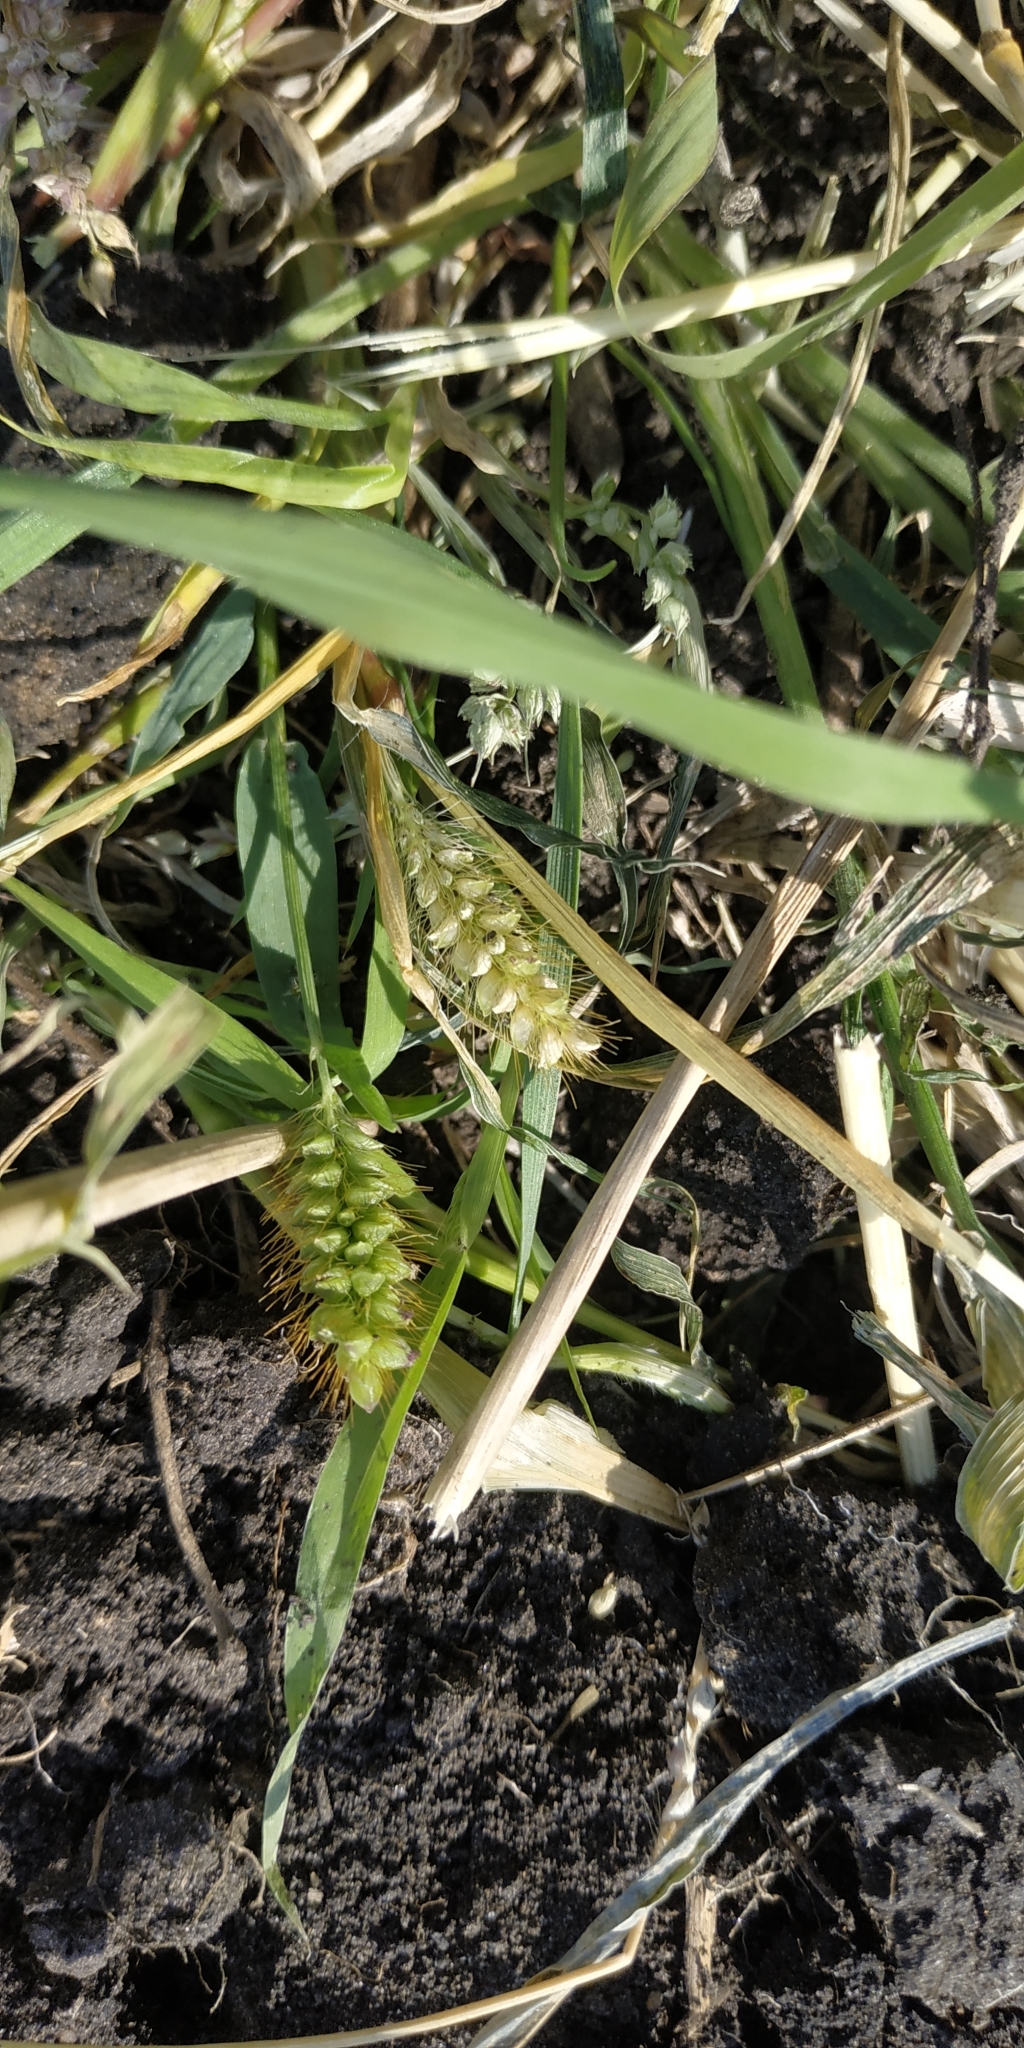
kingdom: Plantae
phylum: Tracheophyta
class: Liliopsida
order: Poales
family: Poaceae
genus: Setaria
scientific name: Setaria pumila
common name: Yellow bristle-grass
